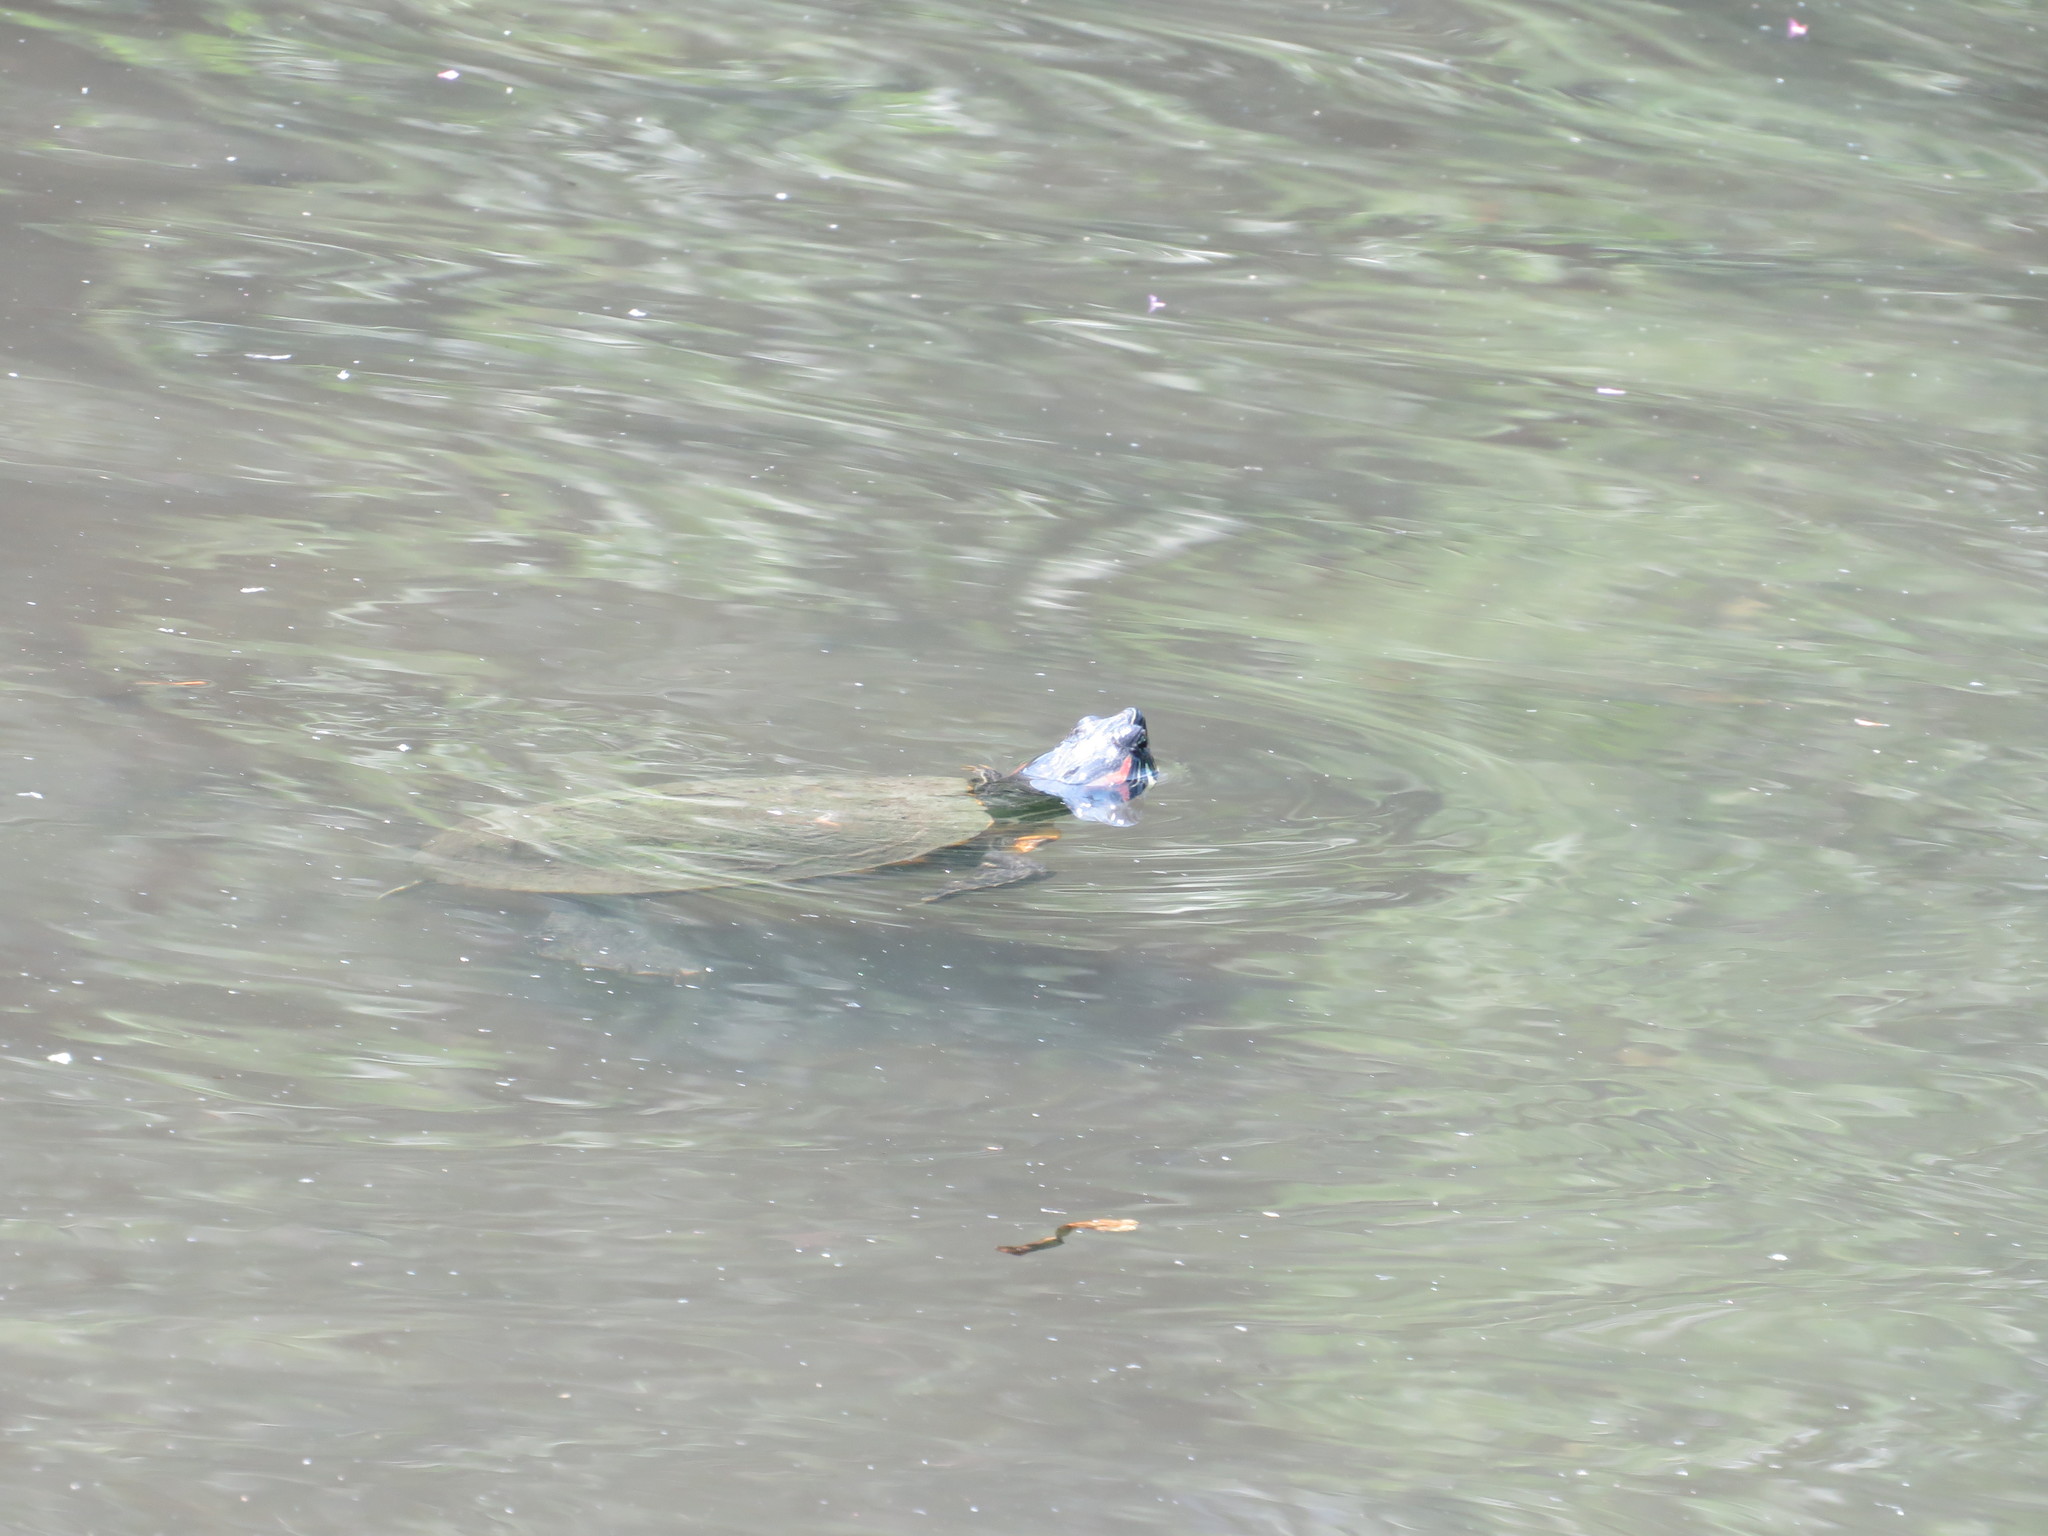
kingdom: Animalia
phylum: Chordata
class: Testudines
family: Emydidae
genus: Trachemys
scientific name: Trachemys scripta
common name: Slider
